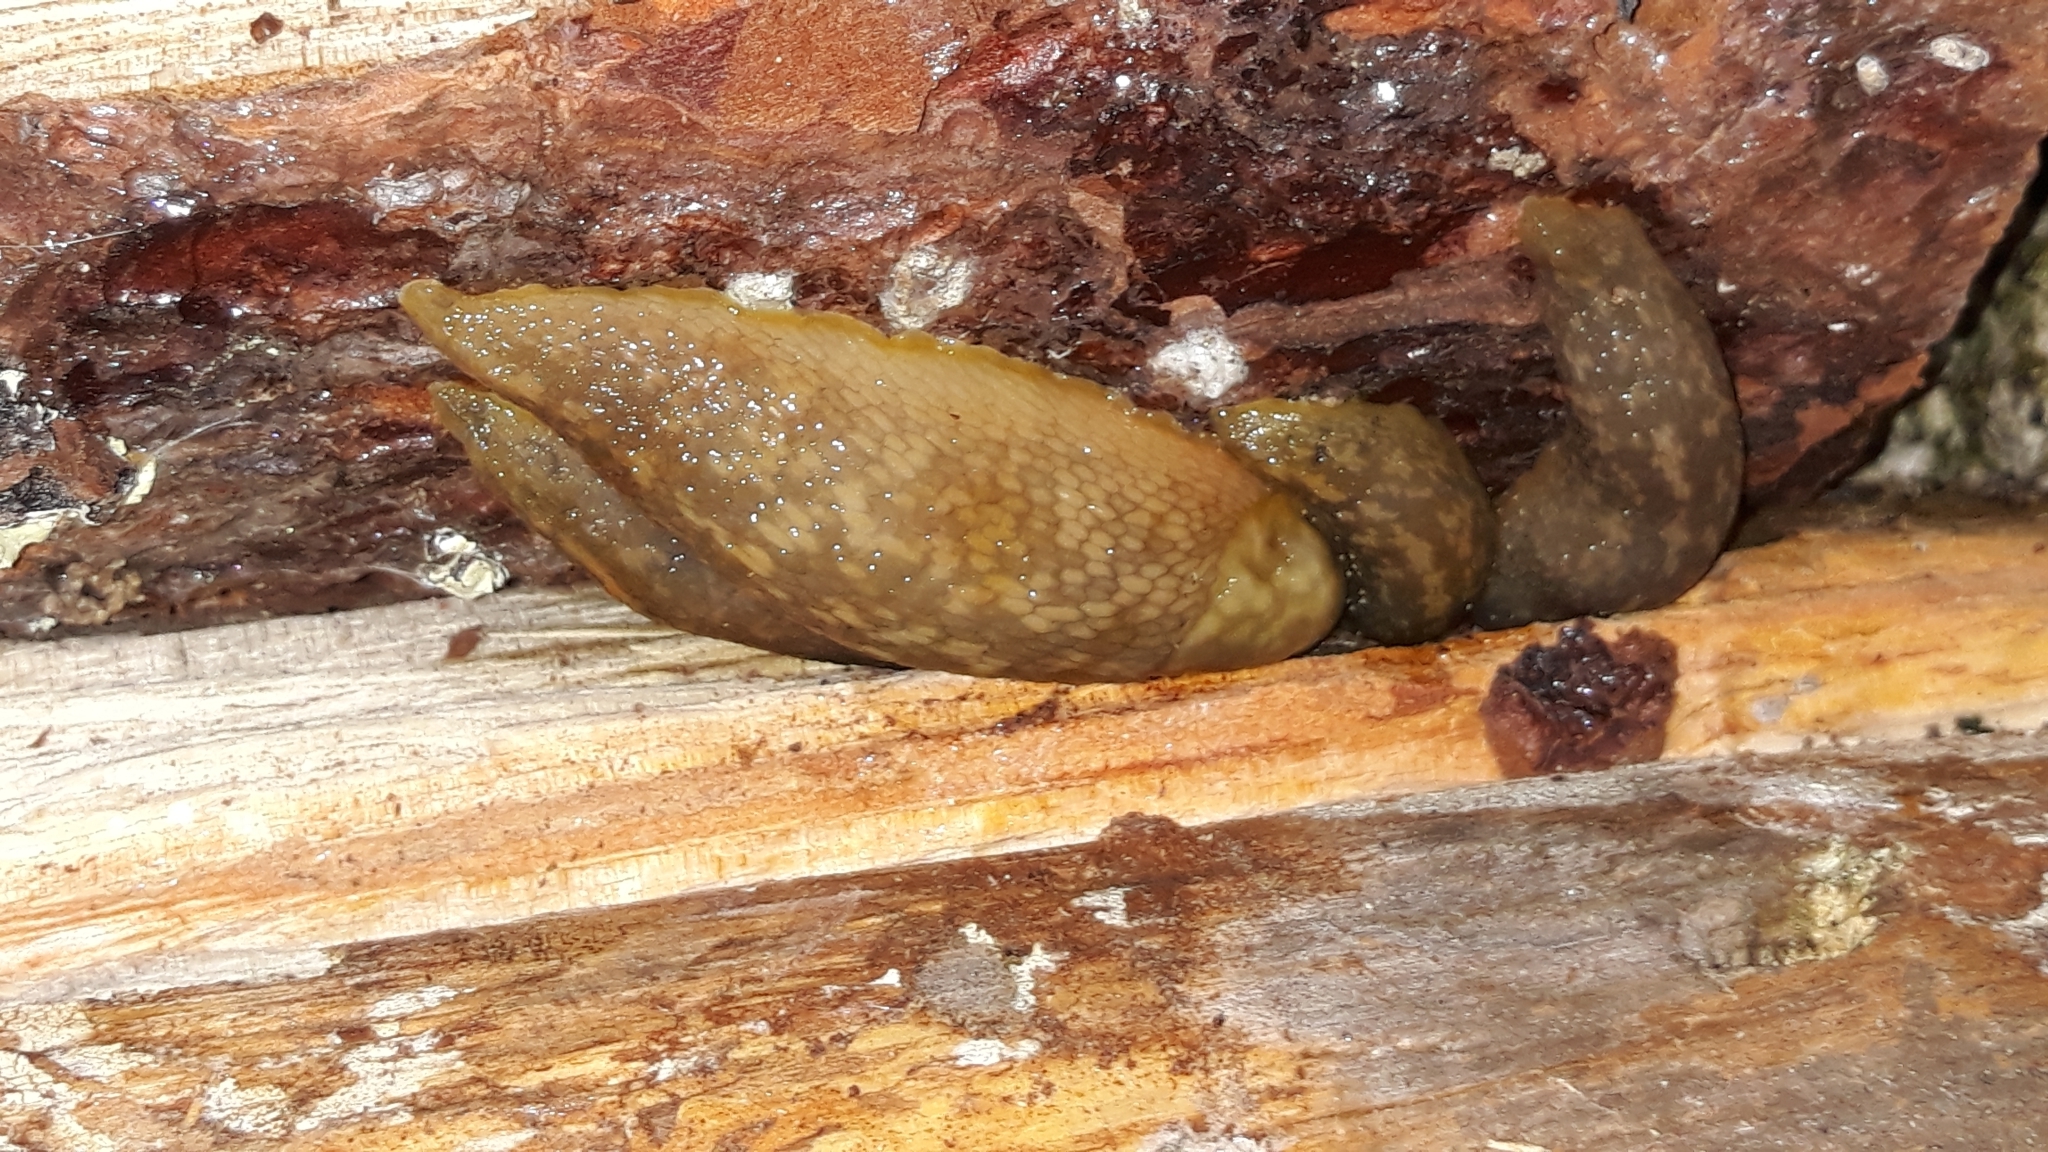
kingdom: Animalia
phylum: Mollusca
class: Gastropoda
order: Stylommatophora
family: Limacidae
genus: Limacus
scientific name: Limacus flavus
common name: Yellow gardenslug
